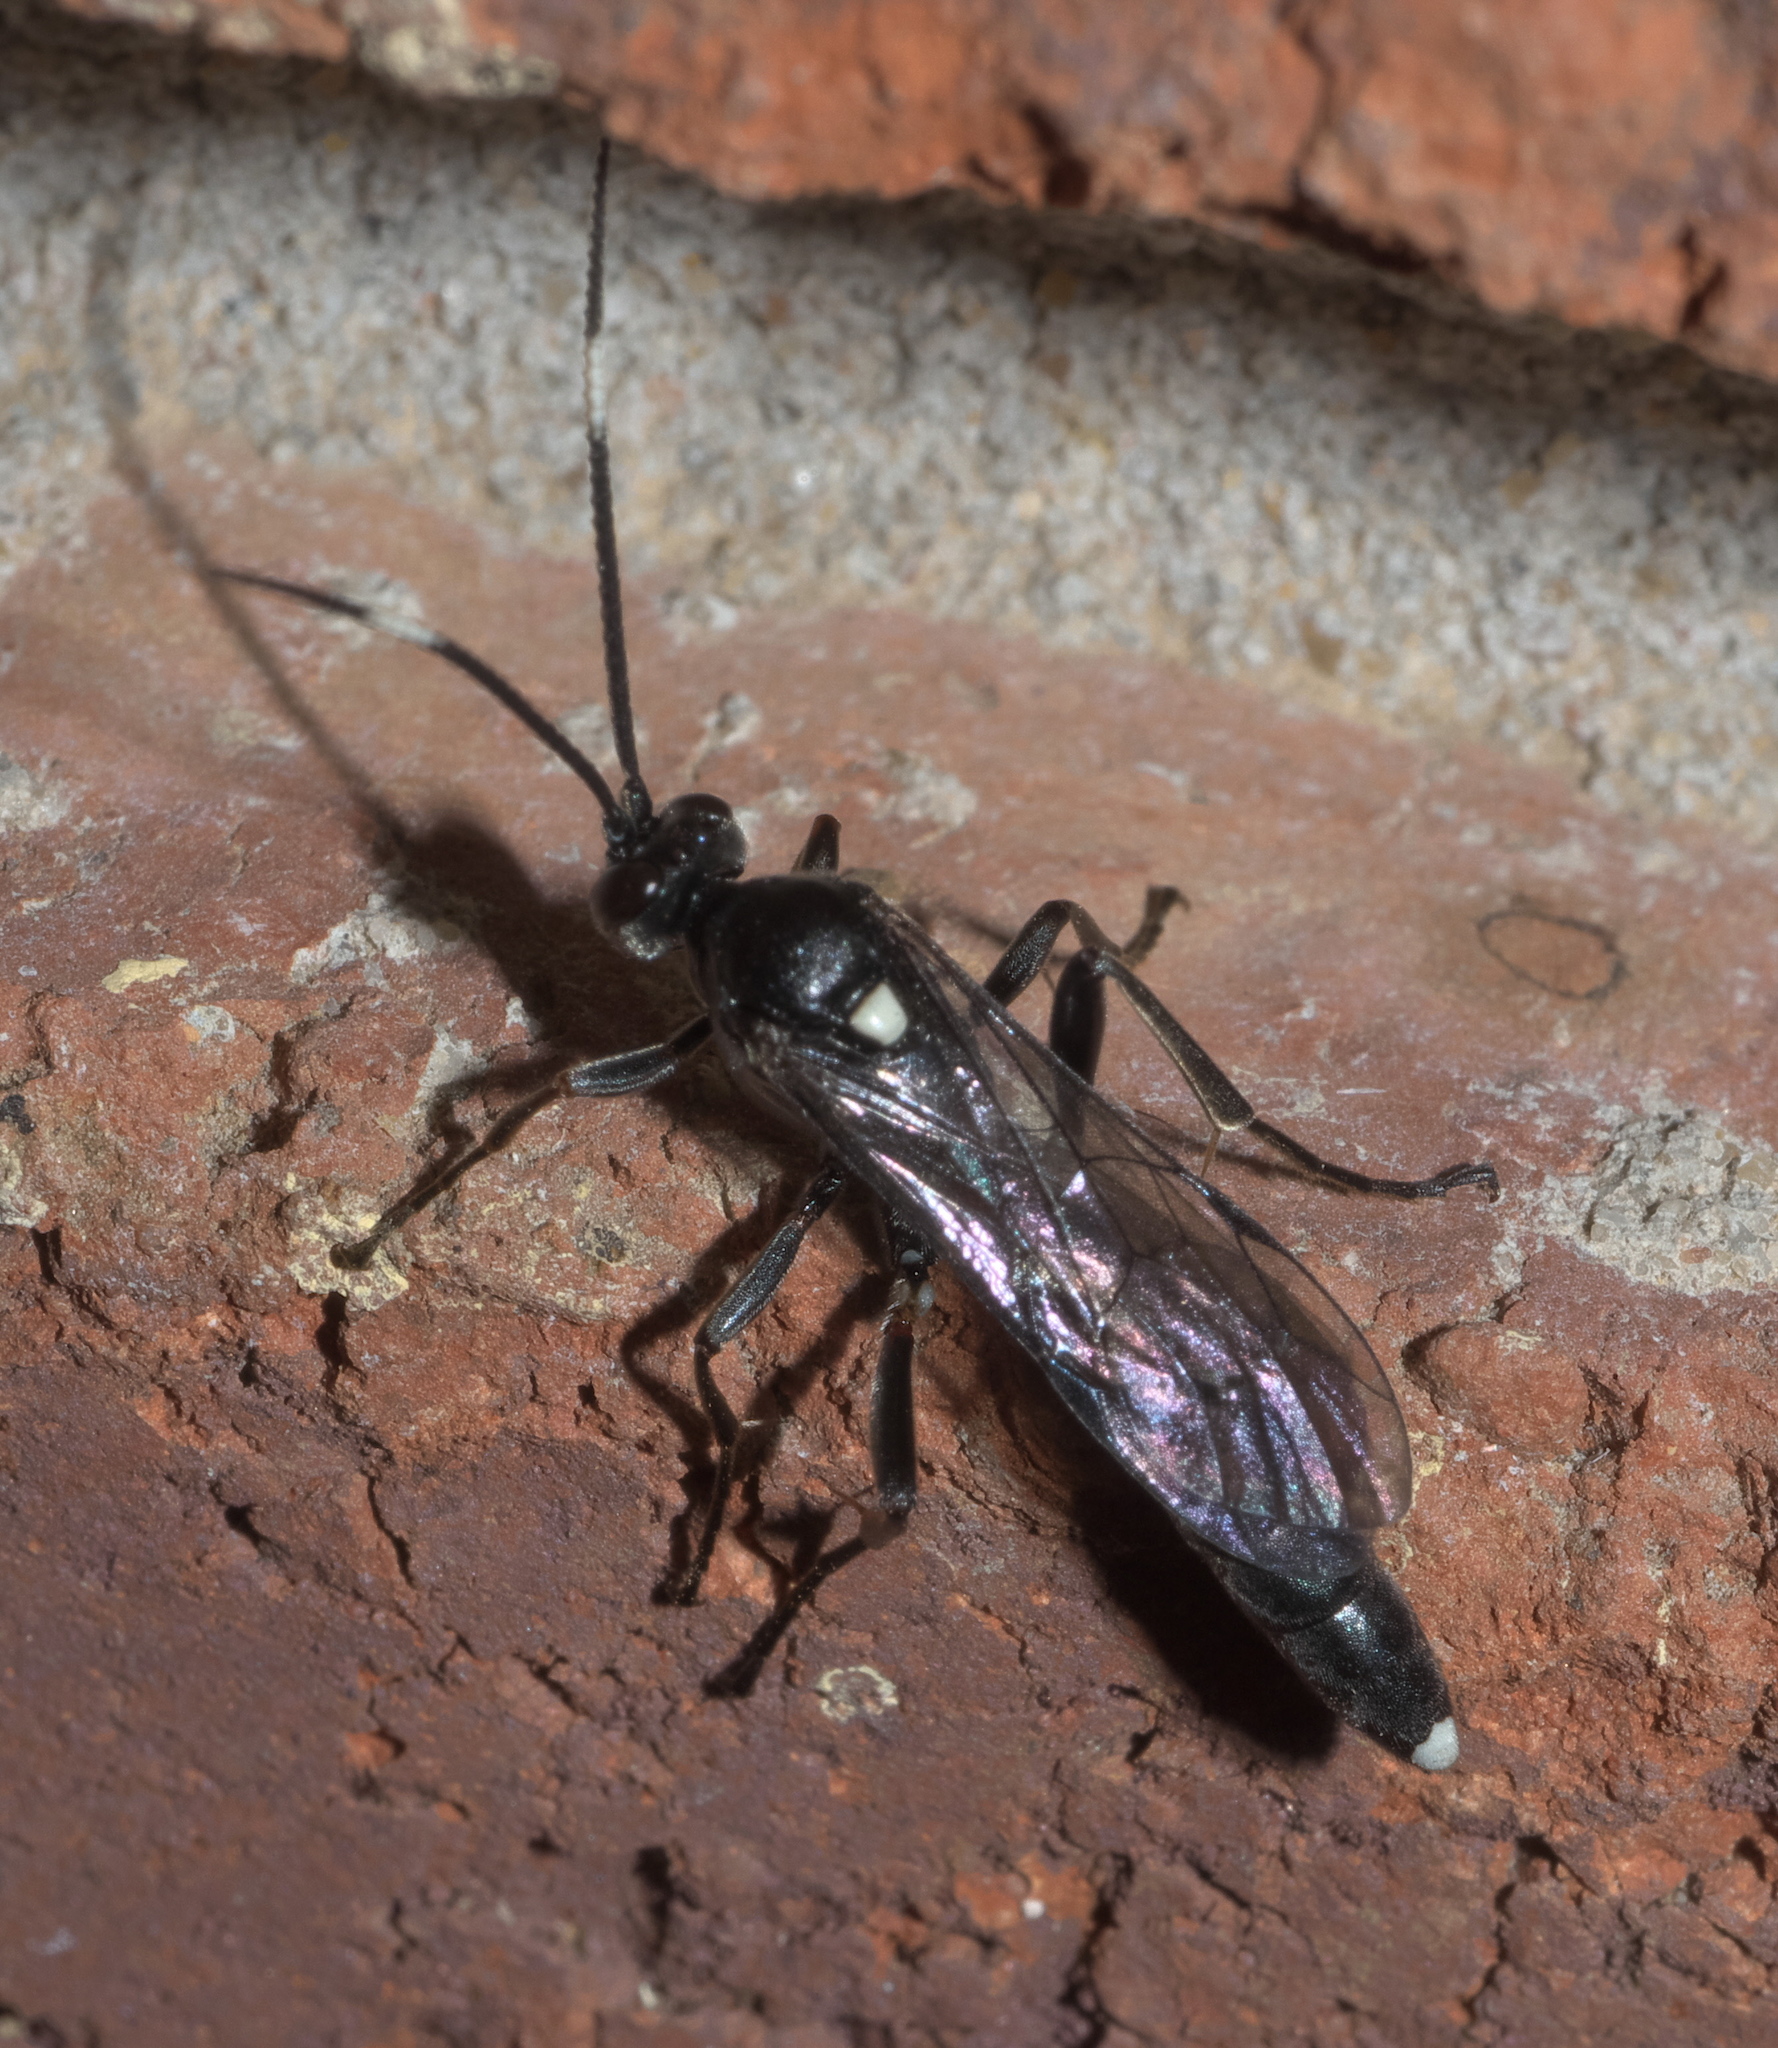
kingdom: Animalia
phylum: Arthropoda
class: Insecta
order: Hymenoptera
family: Ichneumonidae
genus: Vulgichneumon
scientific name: Vulgichneumon brevicinctor
